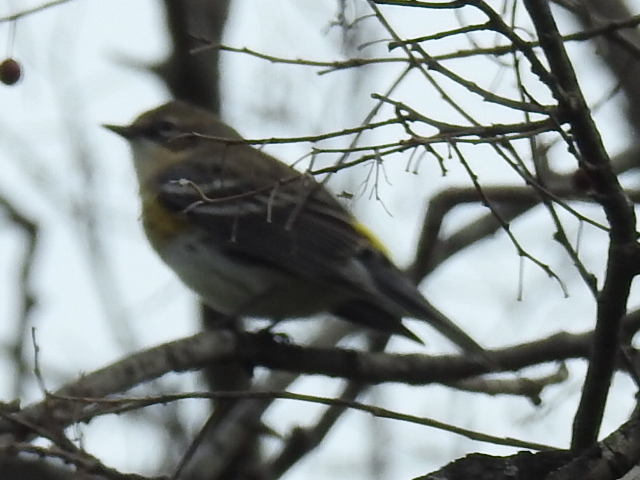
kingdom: Animalia
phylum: Chordata
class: Aves
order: Passeriformes
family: Parulidae
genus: Setophaga
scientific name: Setophaga coronata
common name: Myrtle warbler
